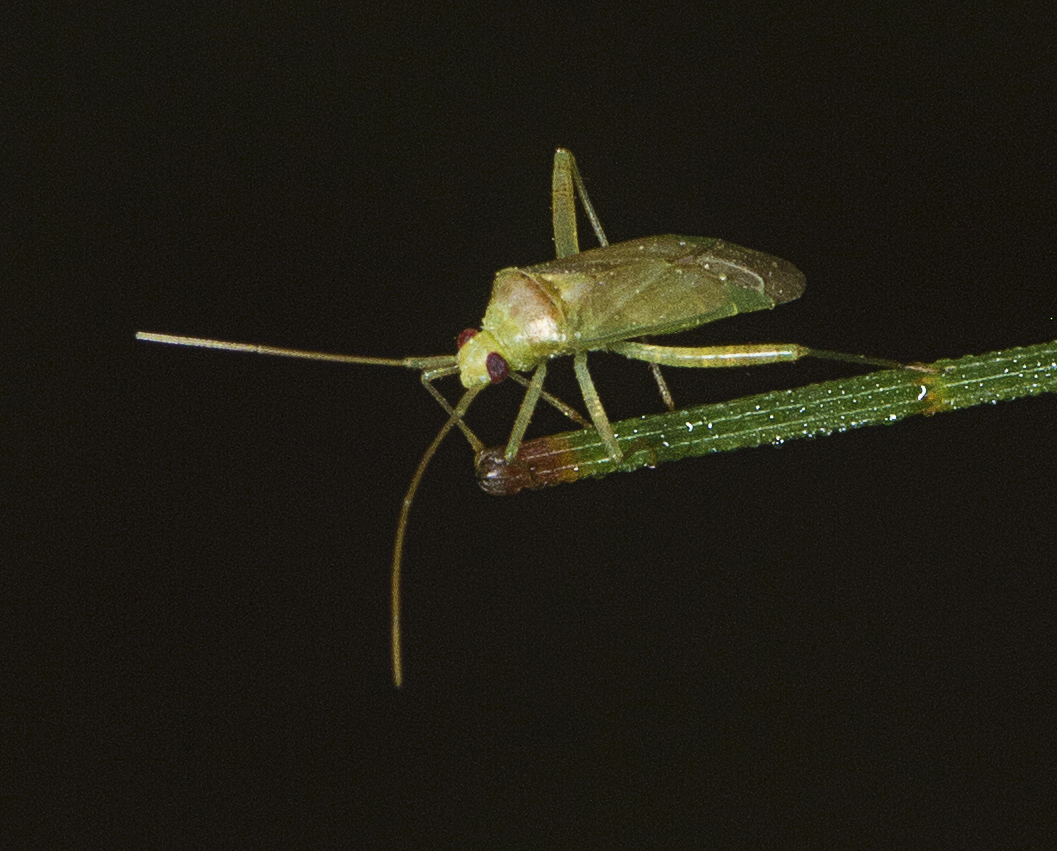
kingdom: Animalia
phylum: Arthropoda
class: Insecta
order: Hemiptera
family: Miridae
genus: Creontiades
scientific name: Creontiades dilutus
